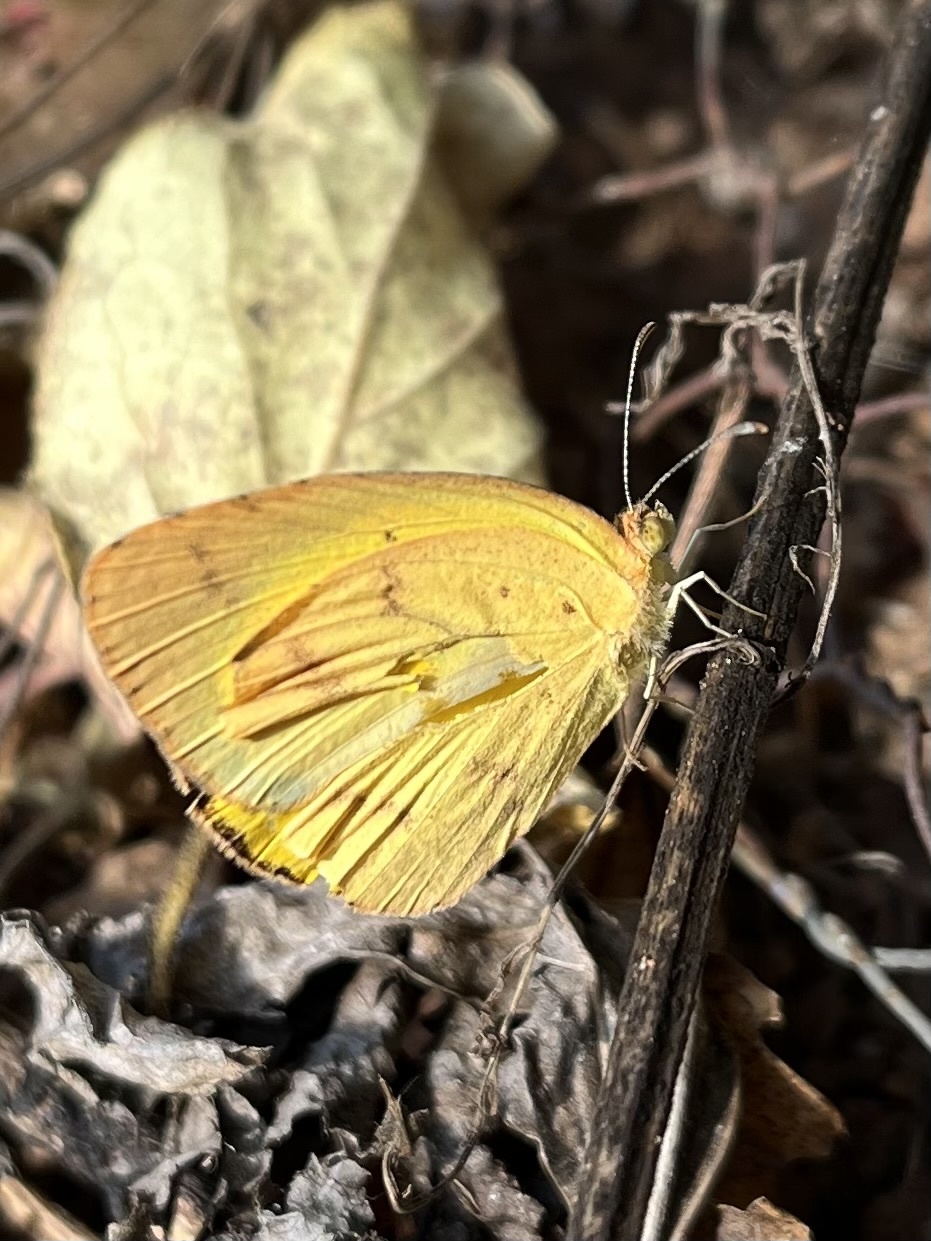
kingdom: Animalia
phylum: Arthropoda
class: Insecta
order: Lepidoptera
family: Pieridae
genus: Eurema
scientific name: Eurema brigitta
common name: Small grass yellow
